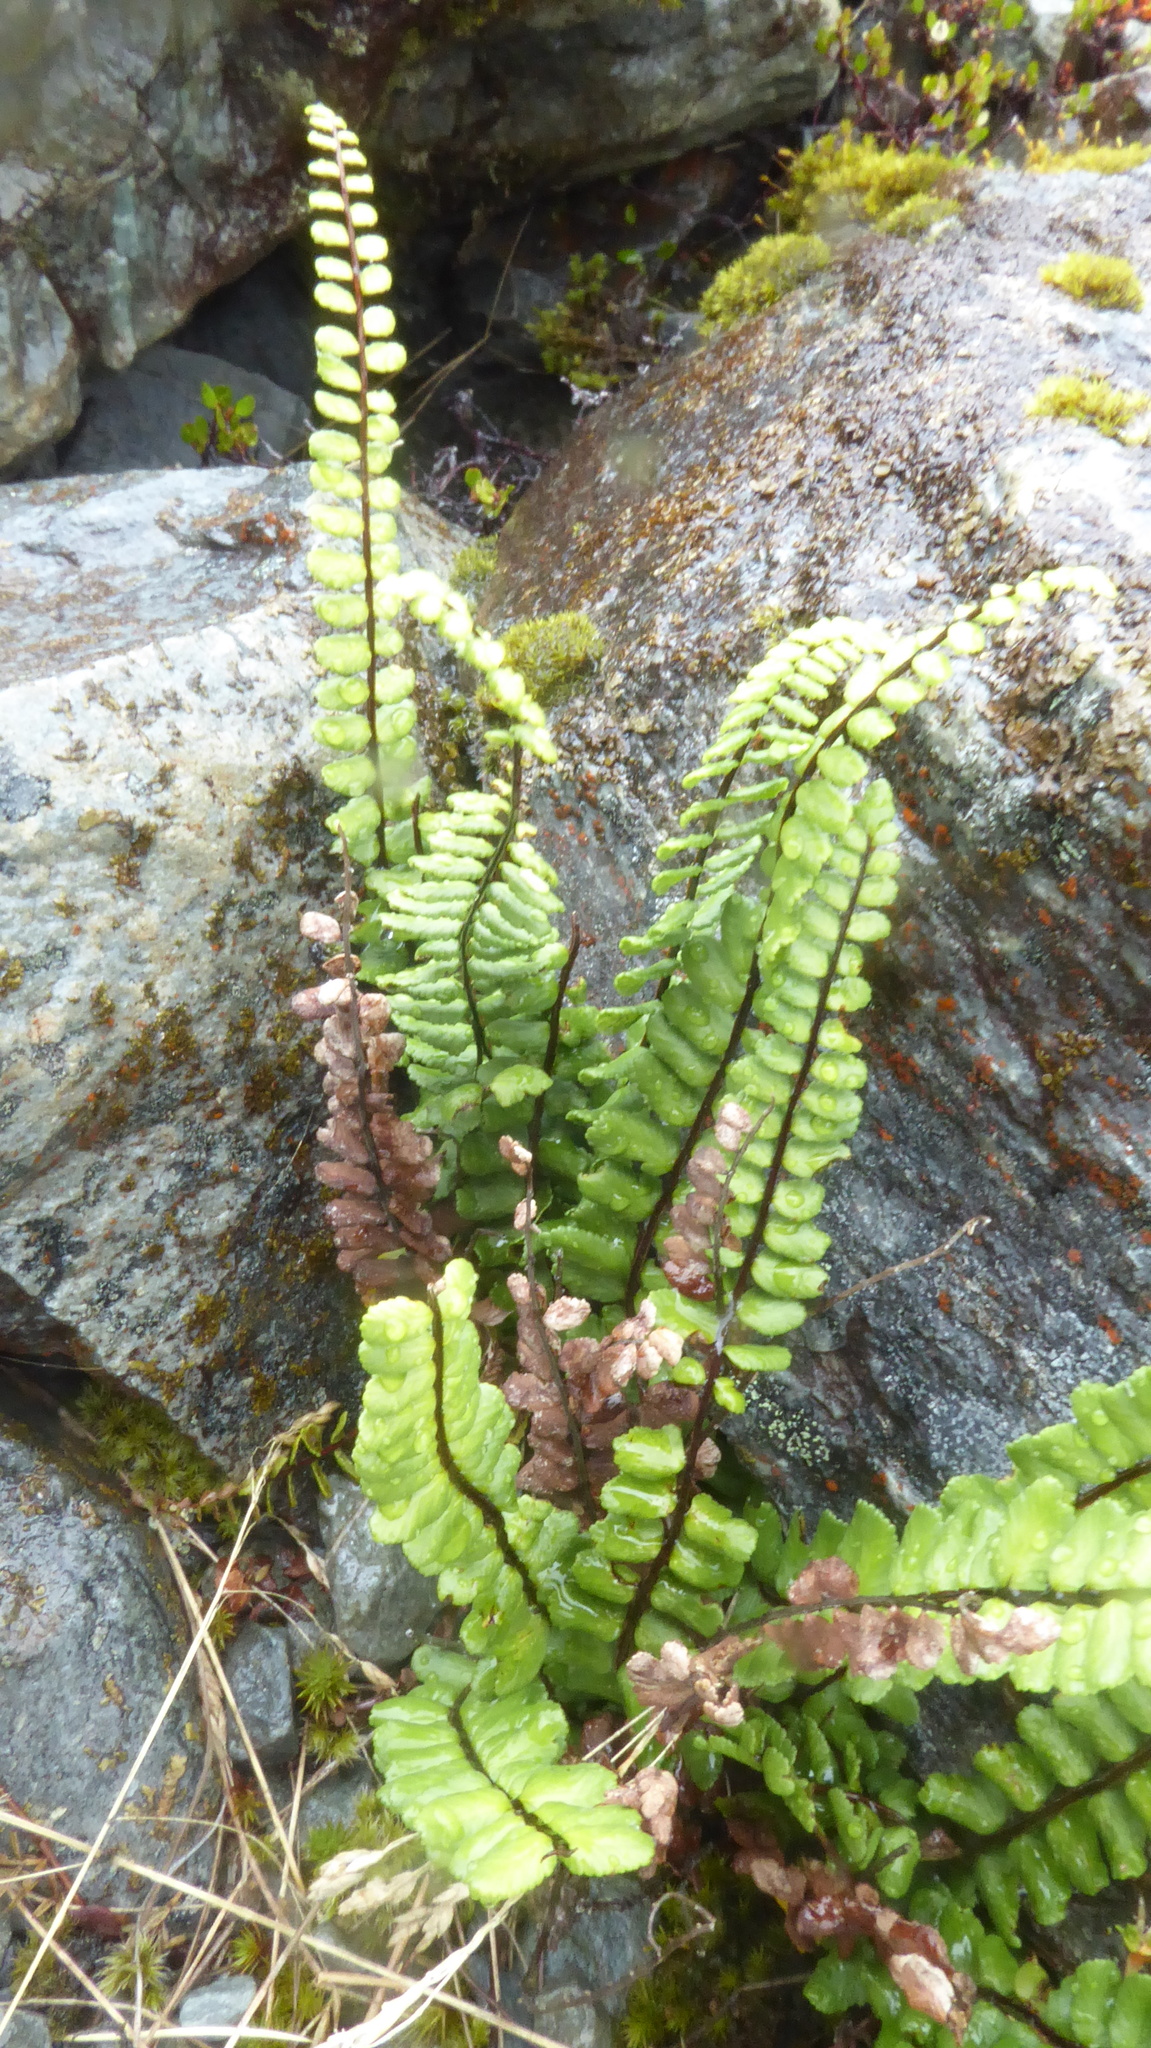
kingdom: Plantae
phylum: Tracheophyta
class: Polypodiopsida
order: Polypodiales
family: Aspleniaceae
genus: Asplenium
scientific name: Asplenium trichomanes
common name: Maidenhair spleenwort
